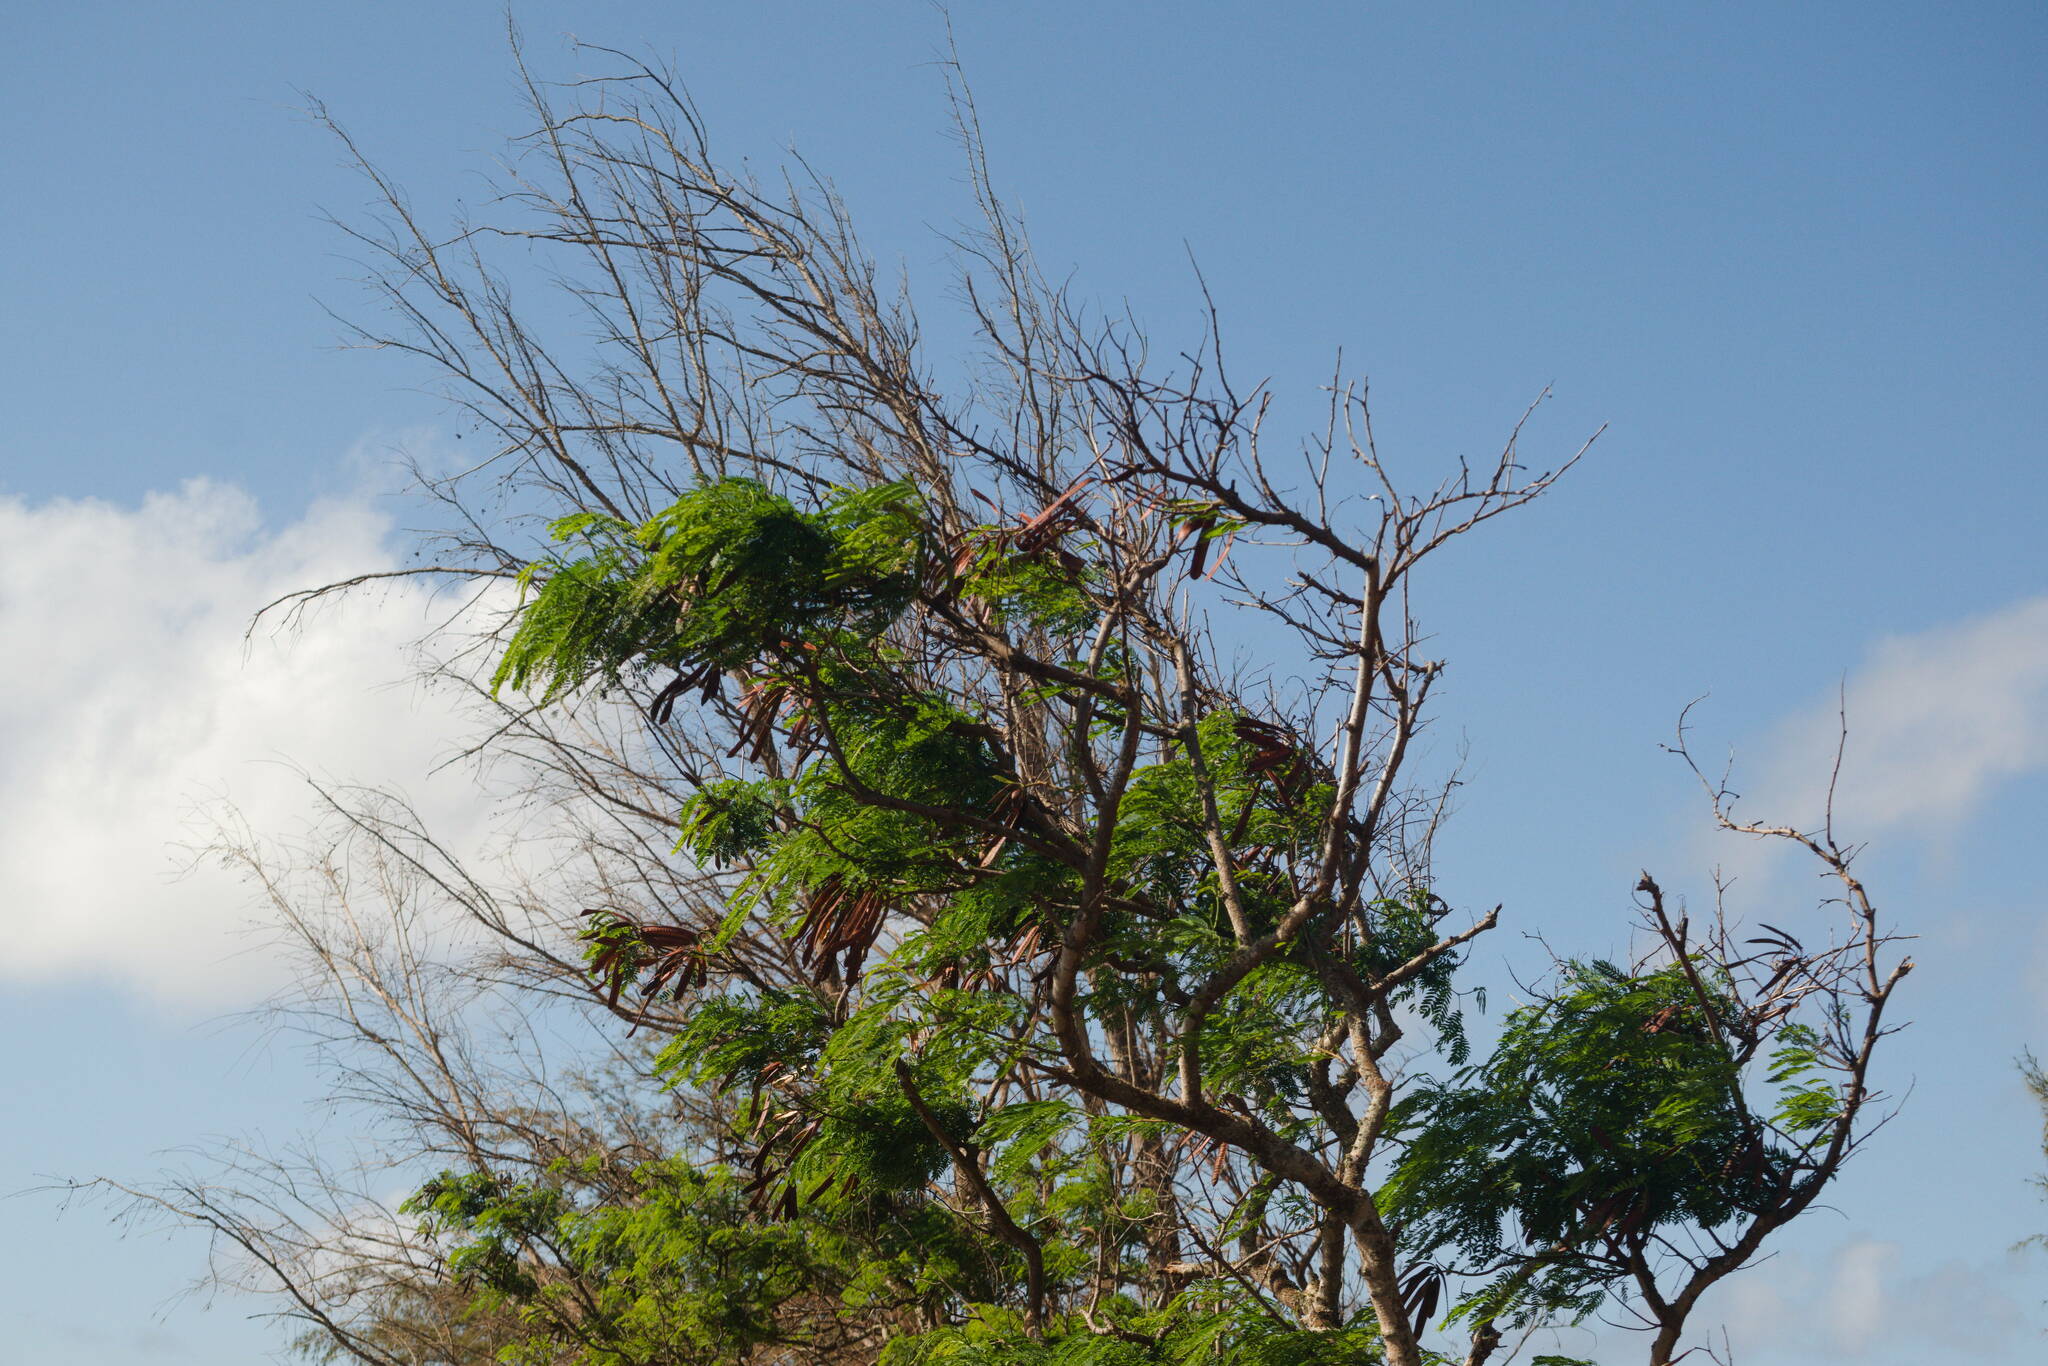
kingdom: Plantae
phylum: Tracheophyta
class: Magnoliopsida
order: Fabales
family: Fabaceae
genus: Leucaena
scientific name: Leucaena leucocephala
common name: White leadtree
